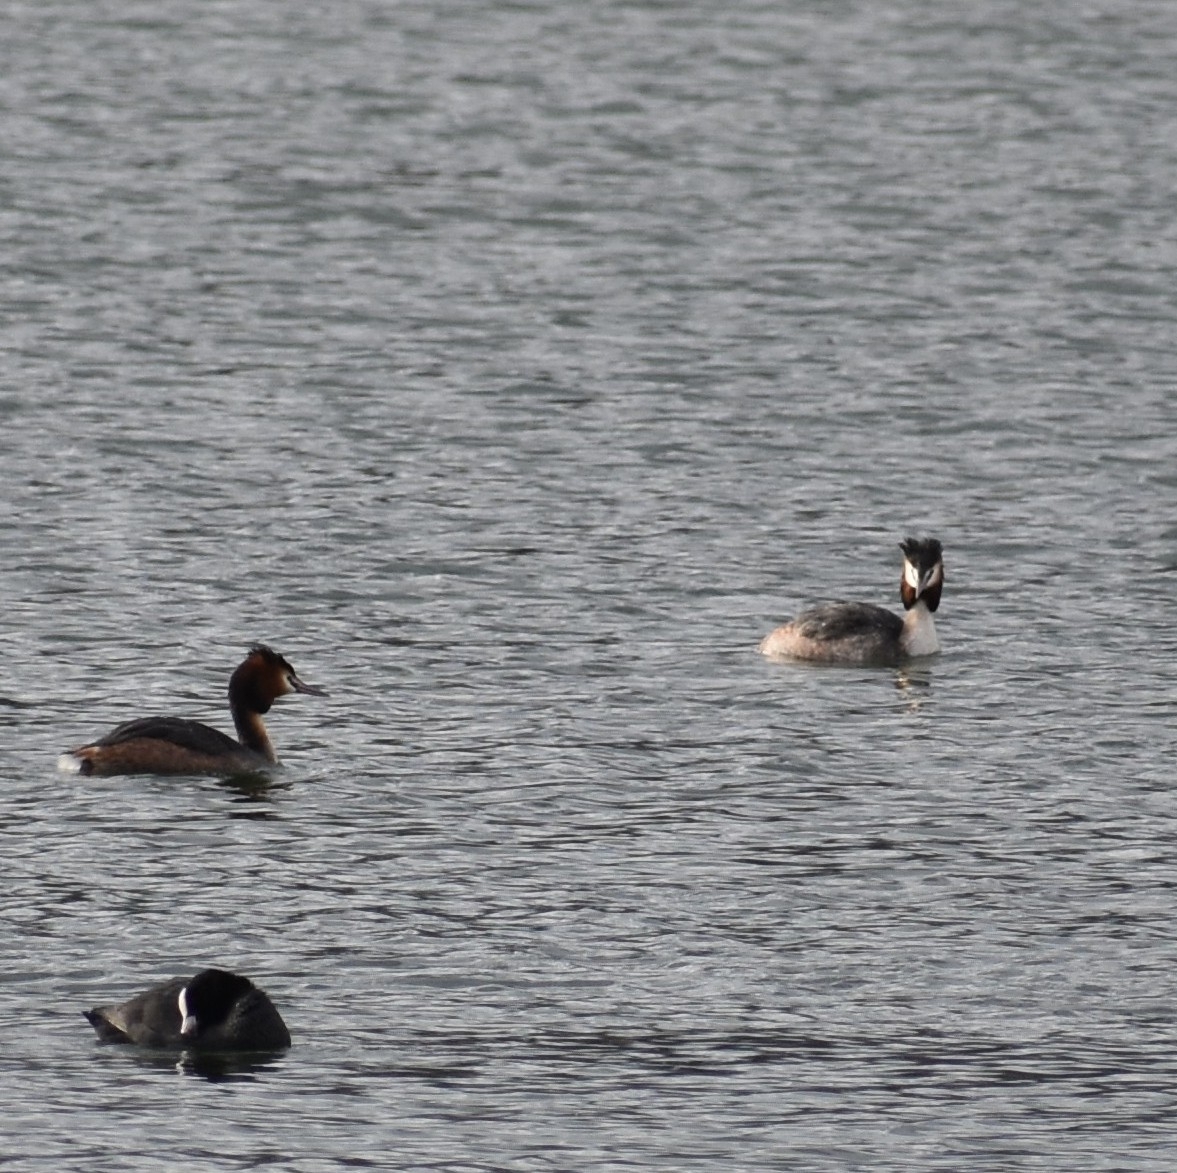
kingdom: Animalia
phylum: Chordata
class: Aves
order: Podicipediformes
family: Podicipedidae
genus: Podiceps
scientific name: Podiceps cristatus
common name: Great crested grebe
